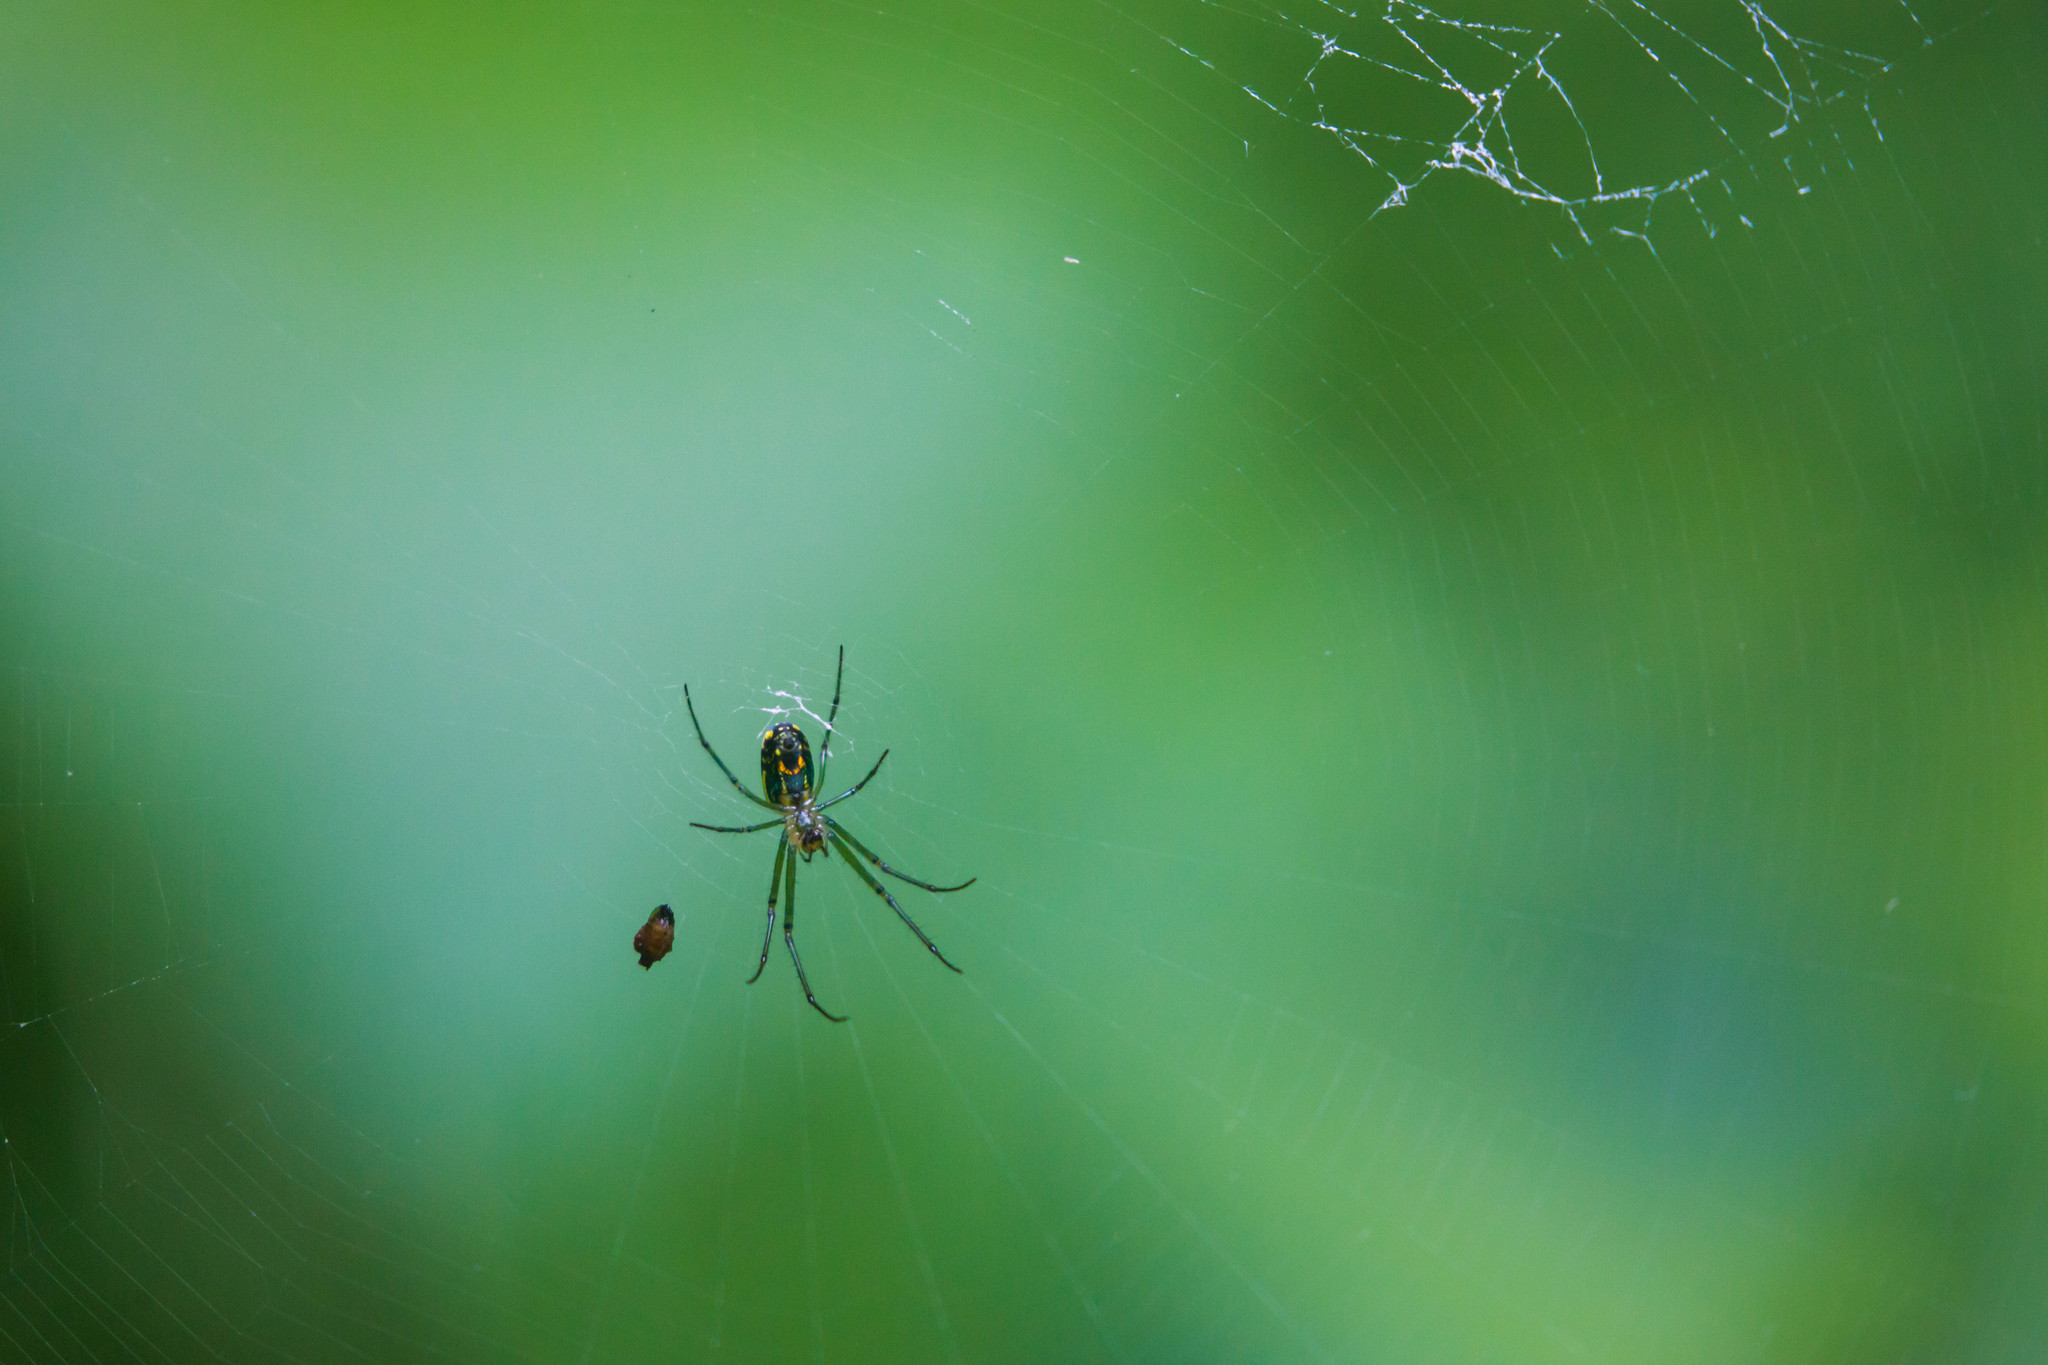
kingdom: Animalia
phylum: Arthropoda
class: Arachnida
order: Araneae
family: Tetragnathidae
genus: Leucauge
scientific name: Leucauge venusta
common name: Longjawed orb weavers
